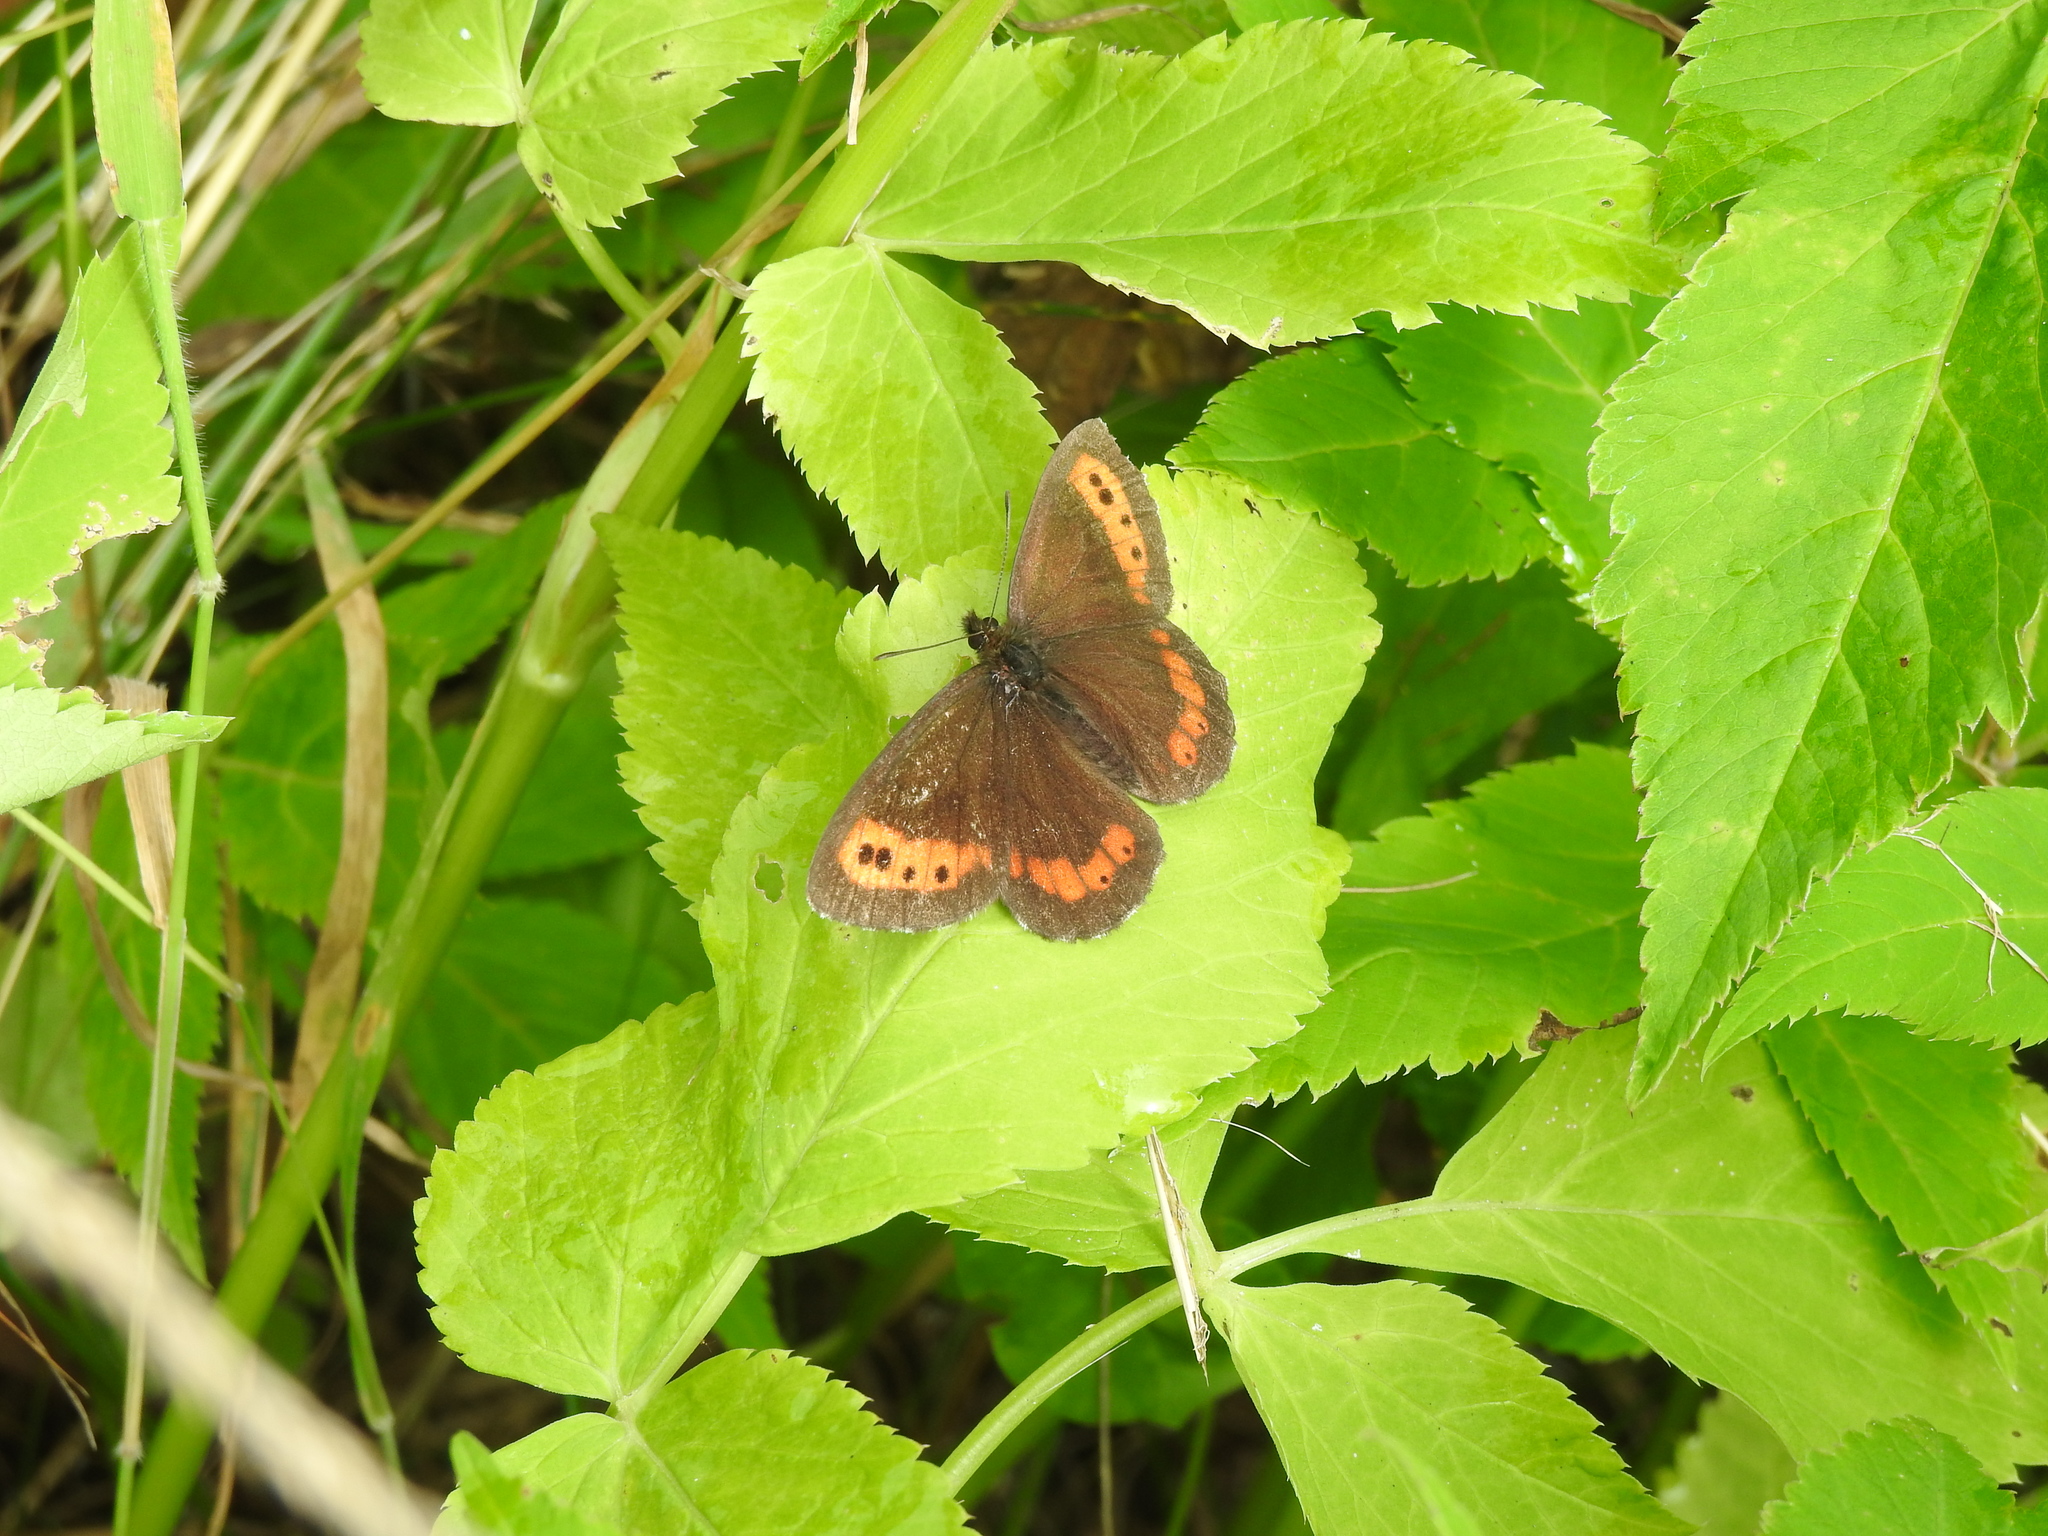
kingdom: Animalia
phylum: Arthropoda
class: Insecta
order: Lepidoptera
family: Nymphalidae
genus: Erebia
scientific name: Erebia ligea
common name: Arran brown
